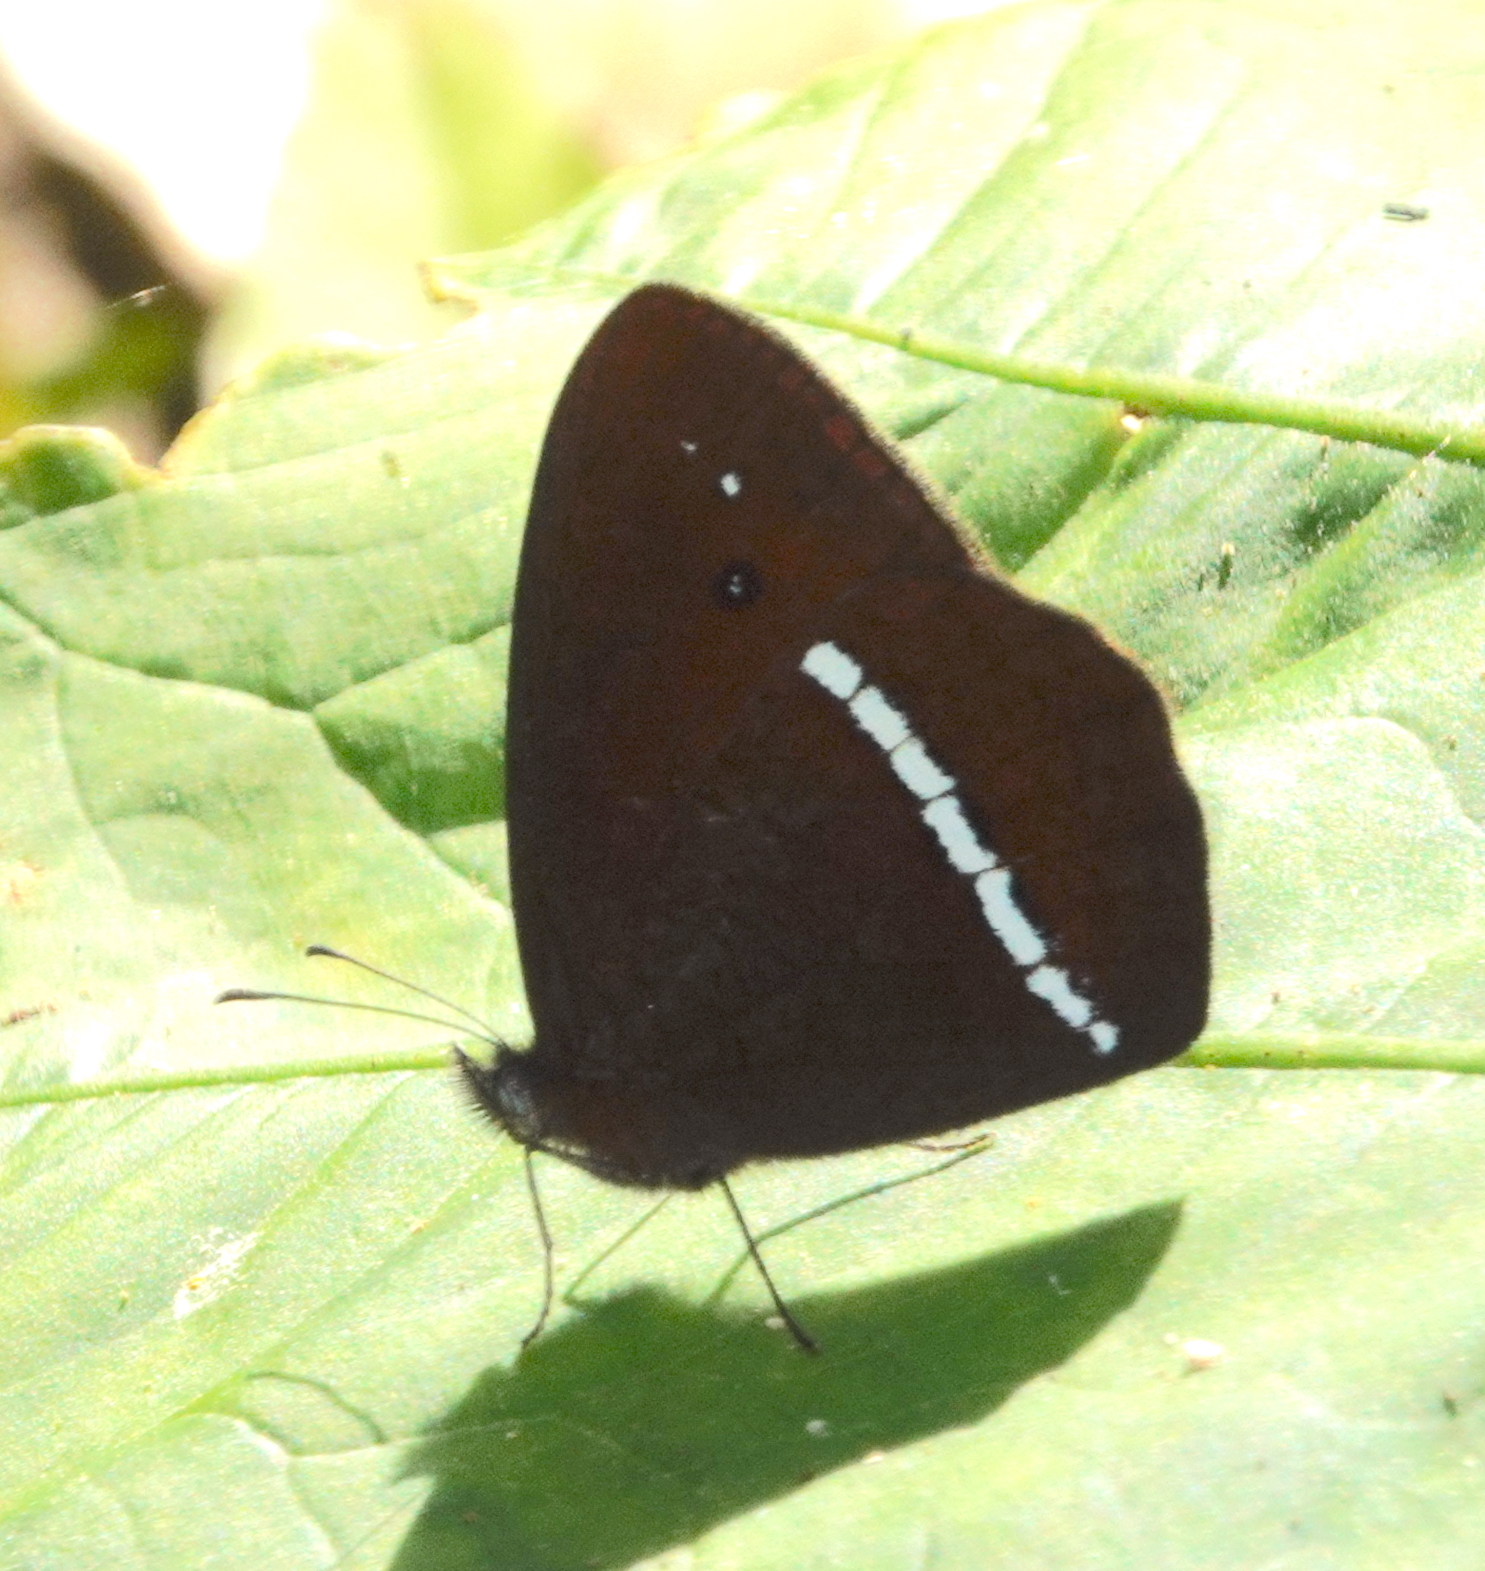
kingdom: Animalia
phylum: Arthropoda
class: Insecta
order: Lepidoptera
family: Nymphalidae
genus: Lymanopoda
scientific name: Lymanopoda albocincta
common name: White-banded mountain satyr
